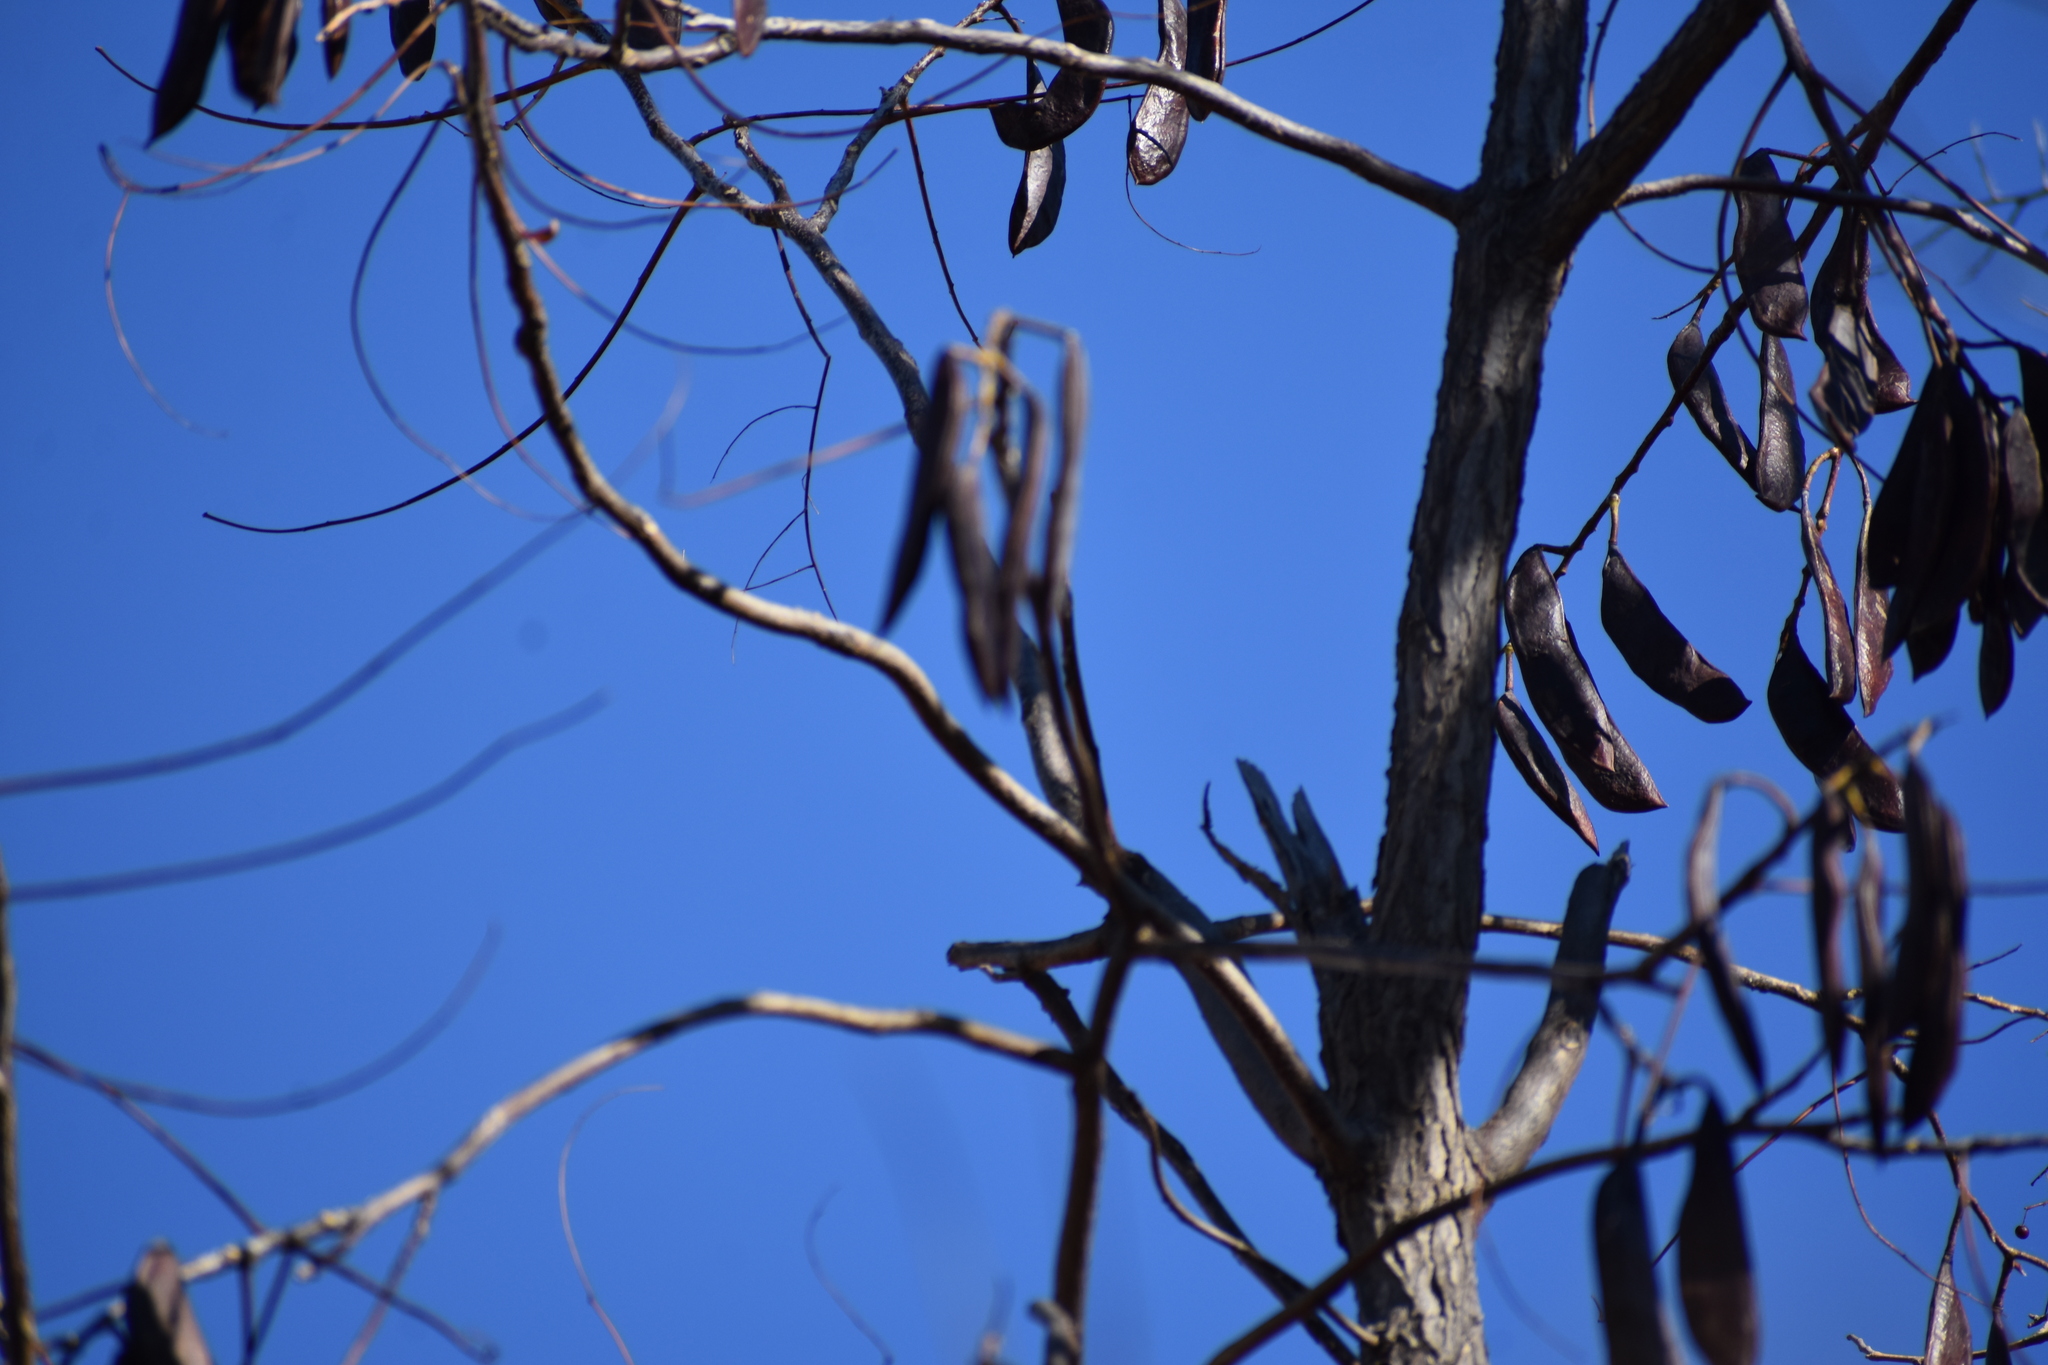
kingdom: Plantae
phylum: Tracheophyta
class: Magnoliopsida
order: Fabales
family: Fabaceae
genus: Gymnocladus
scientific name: Gymnocladus dioicus
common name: Kentucky coffee-tree
